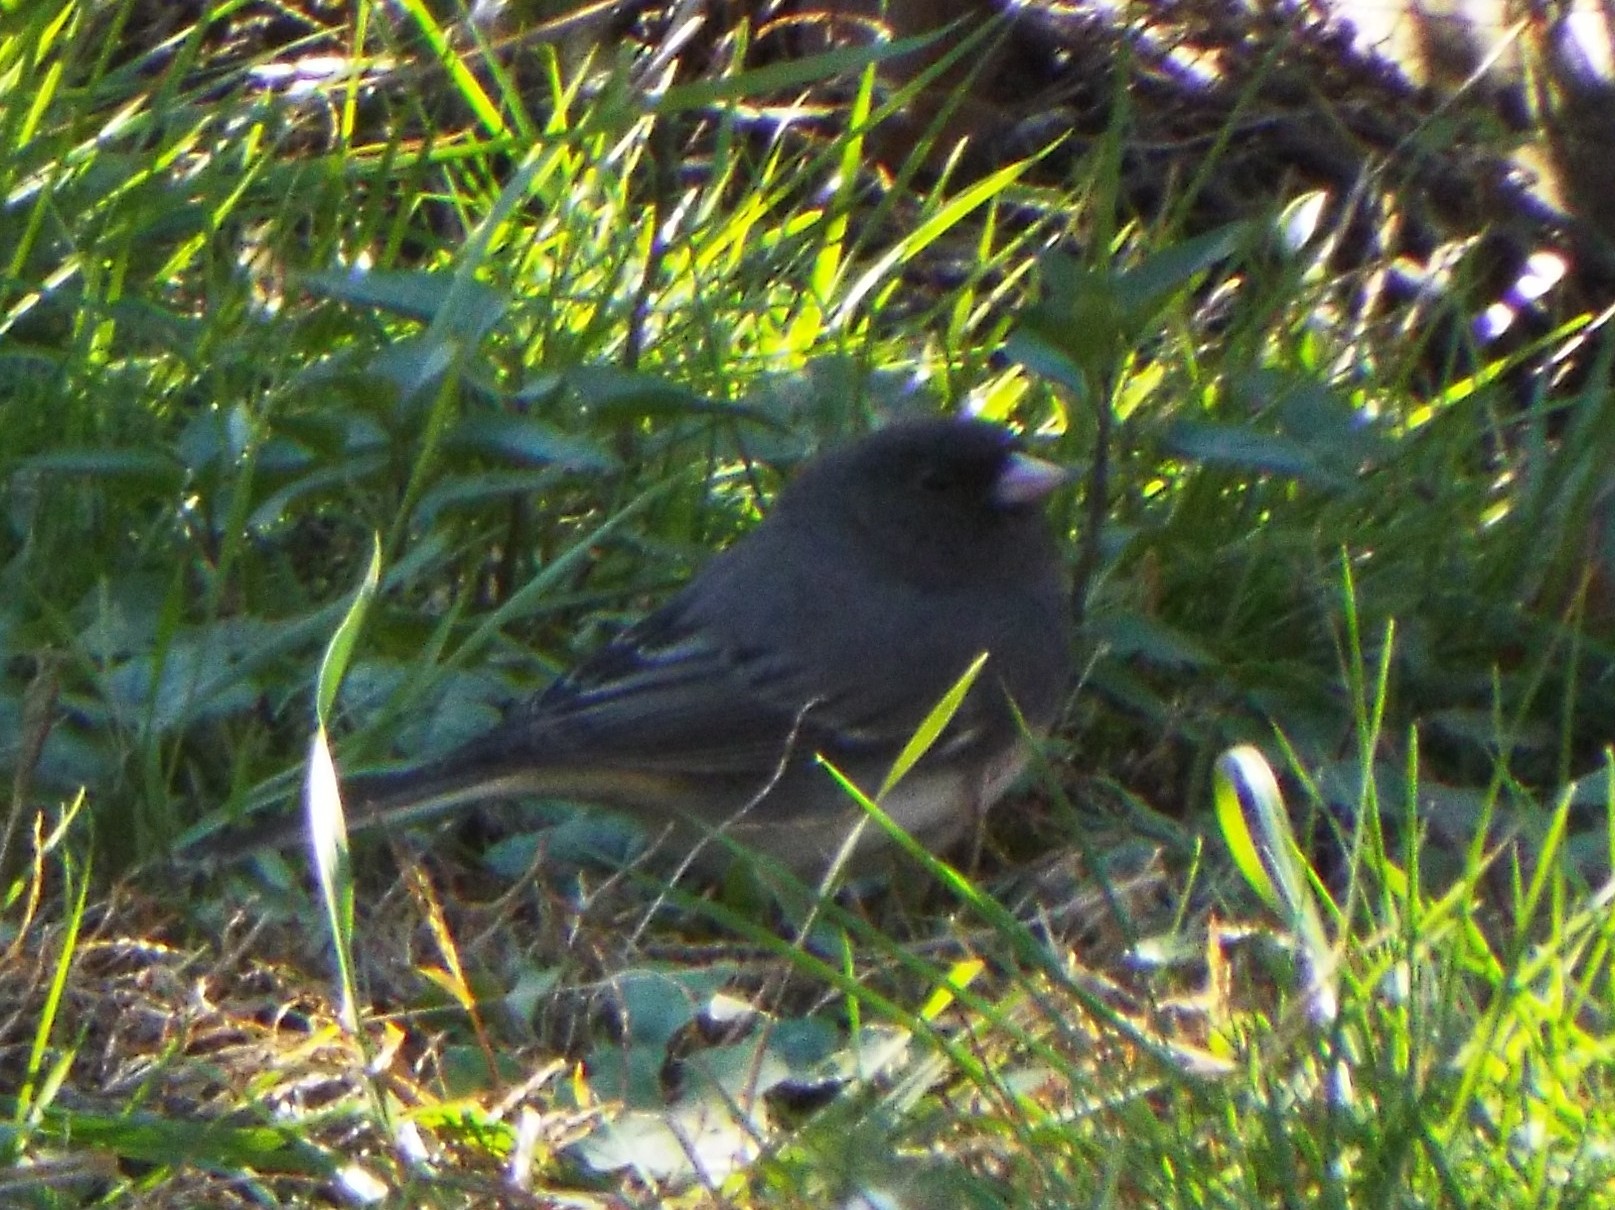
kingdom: Animalia
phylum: Chordata
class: Aves
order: Passeriformes
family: Passerellidae
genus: Junco
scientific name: Junco hyemalis
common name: Dark-eyed junco
